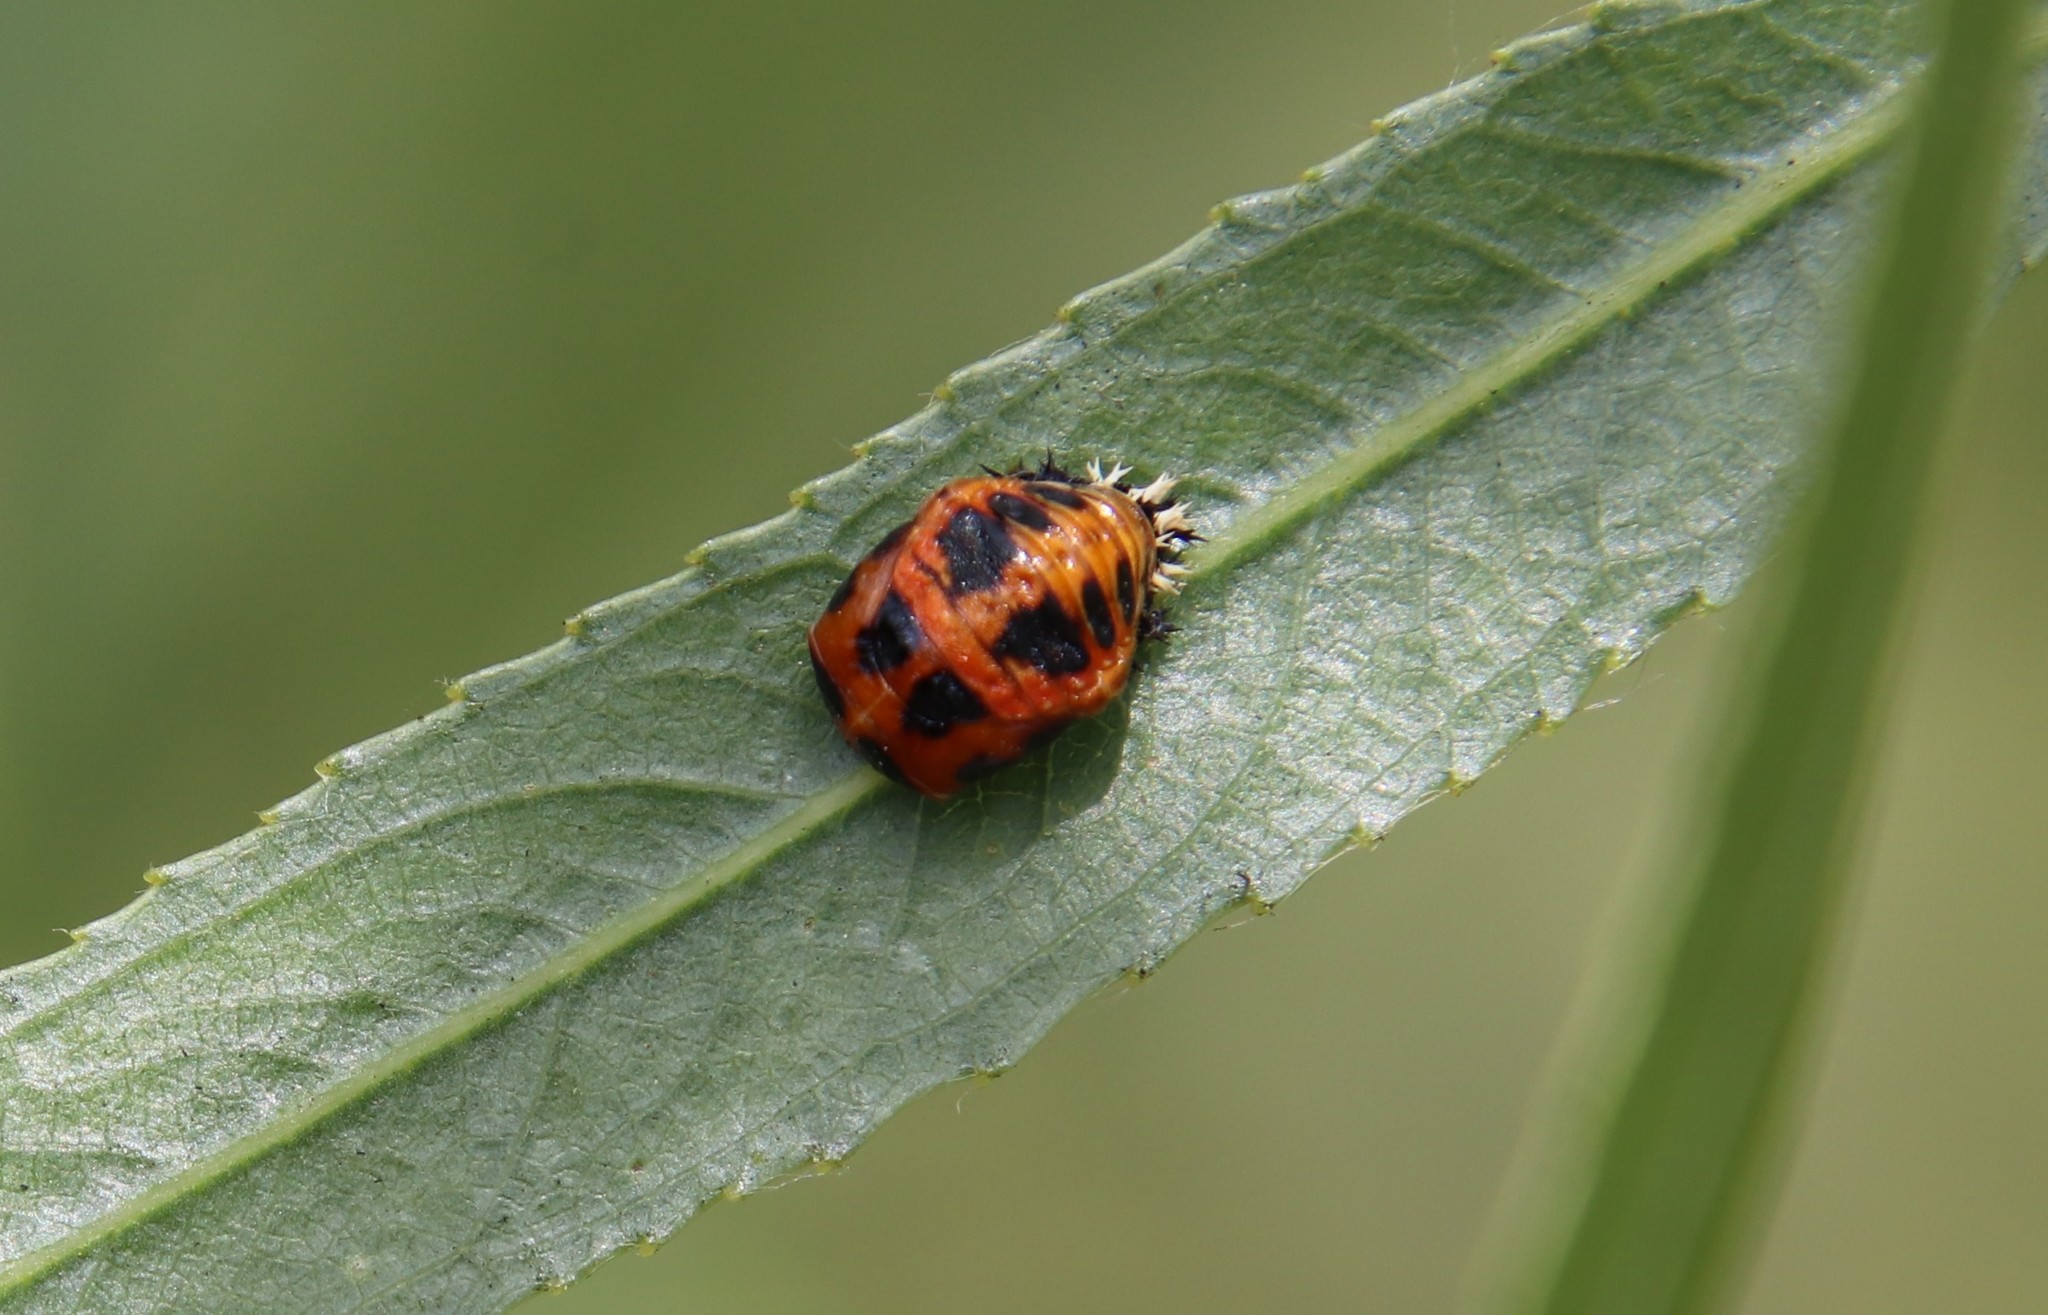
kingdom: Animalia
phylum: Arthropoda
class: Insecta
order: Coleoptera
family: Coccinellidae
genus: Harmonia
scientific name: Harmonia axyridis
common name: Harlequin ladybird
